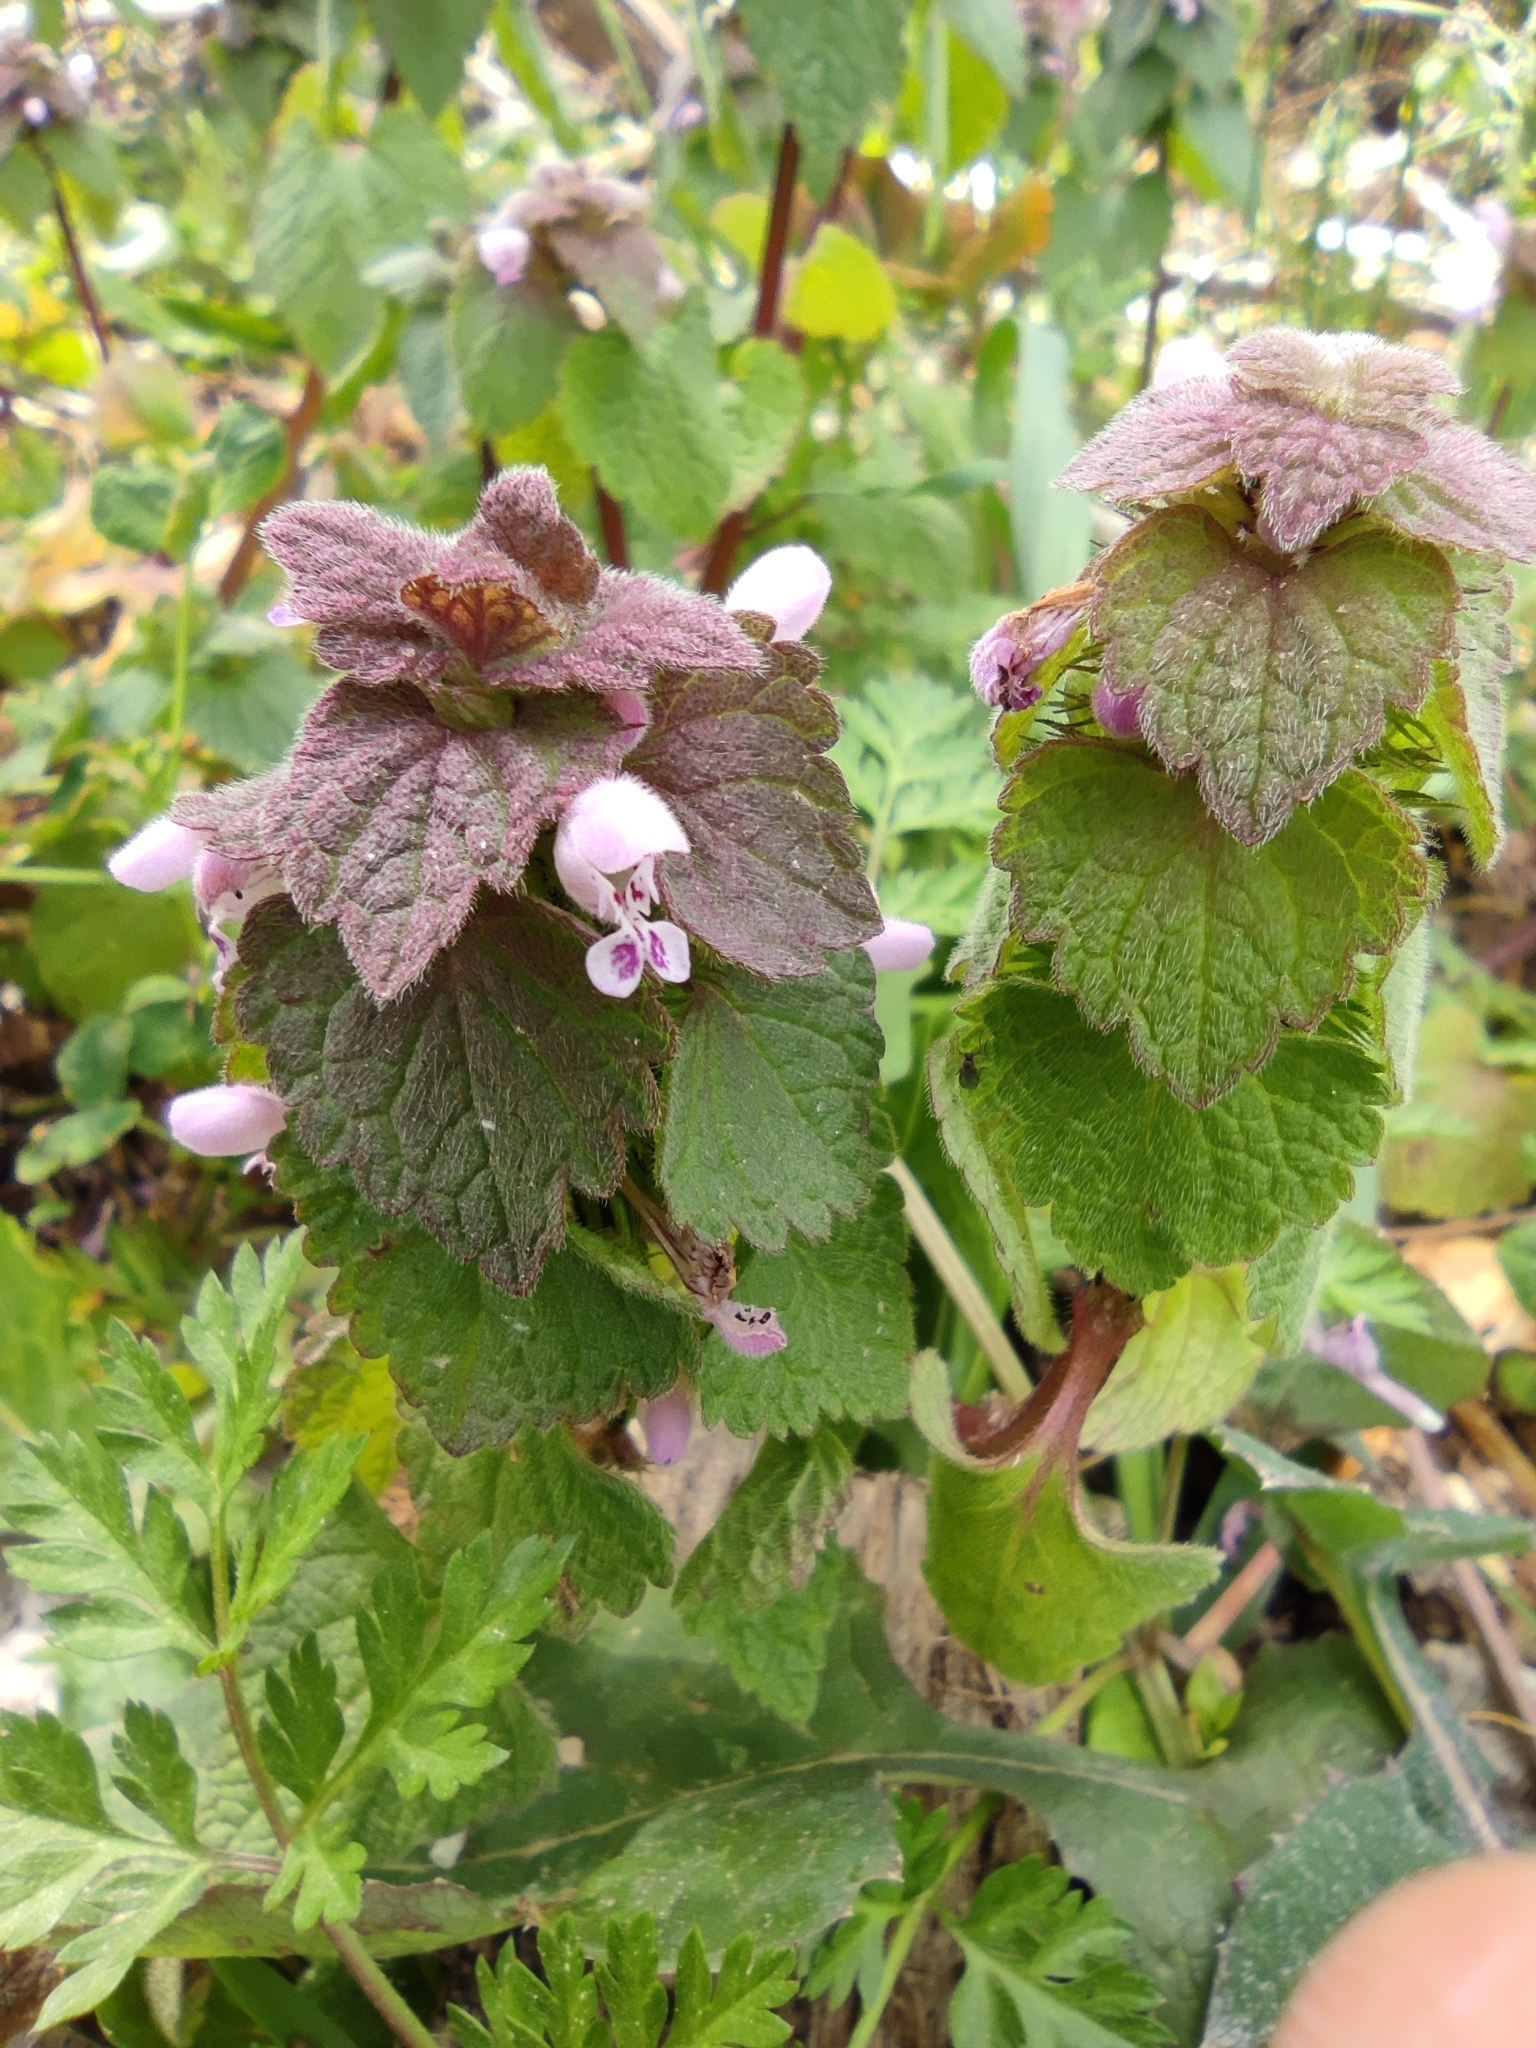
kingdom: Plantae
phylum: Tracheophyta
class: Magnoliopsida
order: Lamiales
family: Lamiaceae
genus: Lamium
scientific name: Lamium purpureum
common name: Red dead-nettle
